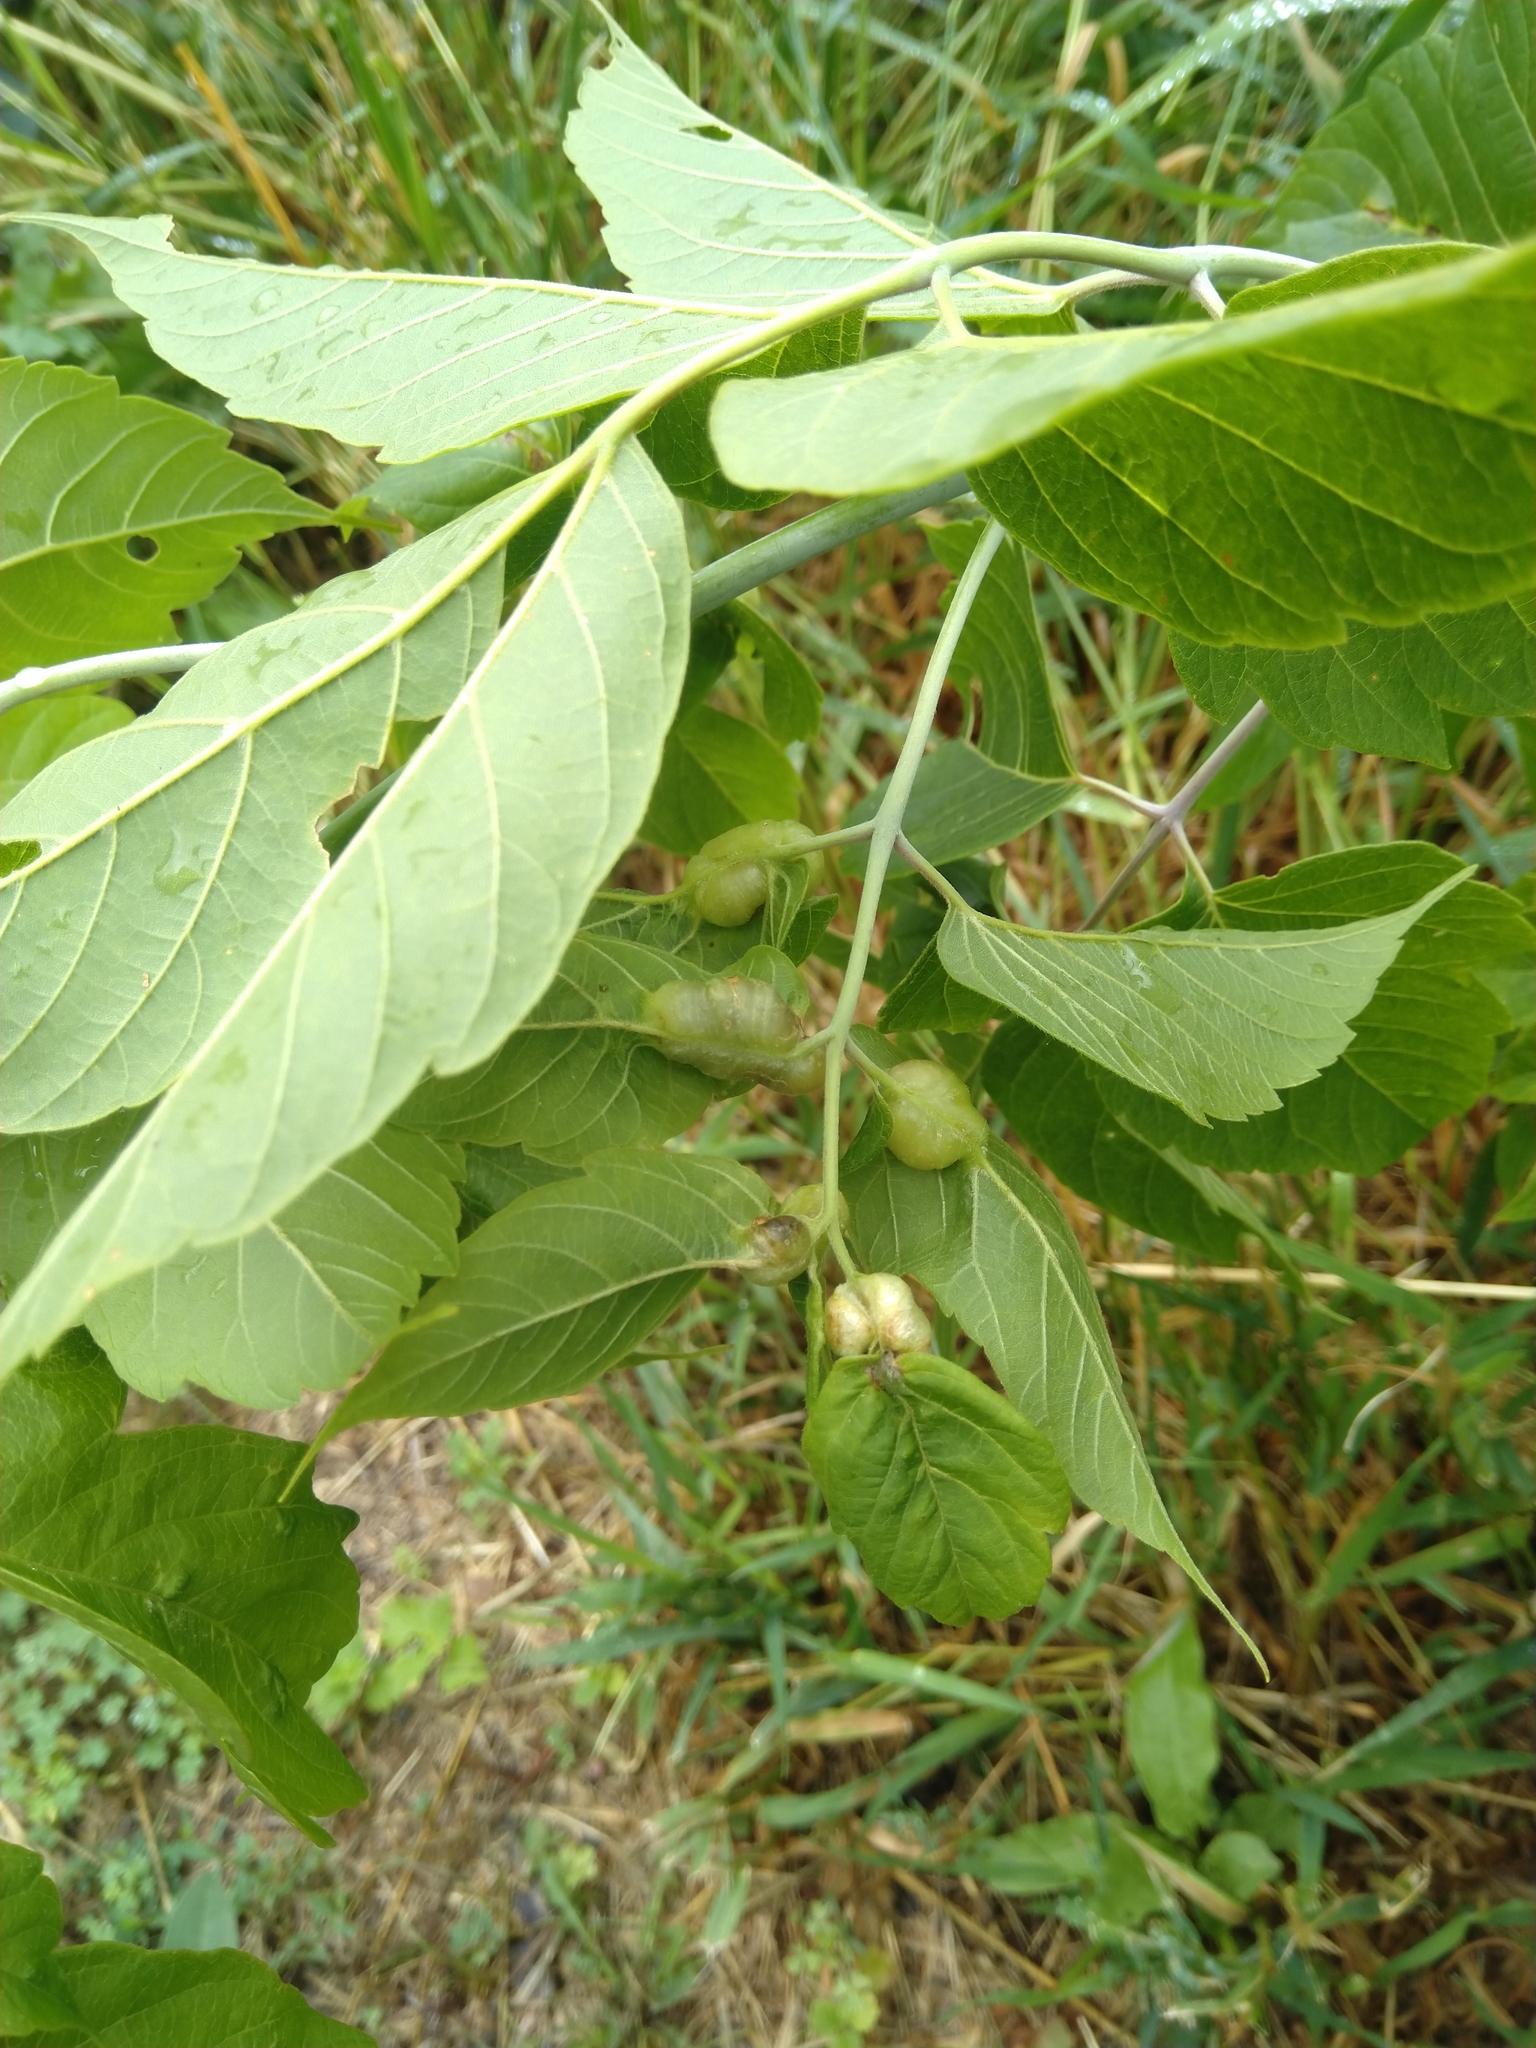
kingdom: Animalia
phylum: Arthropoda
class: Insecta
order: Diptera
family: Cecidomyiidae
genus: Contarinia
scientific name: Contarinia negundinis
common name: Boxelder budgall midge
